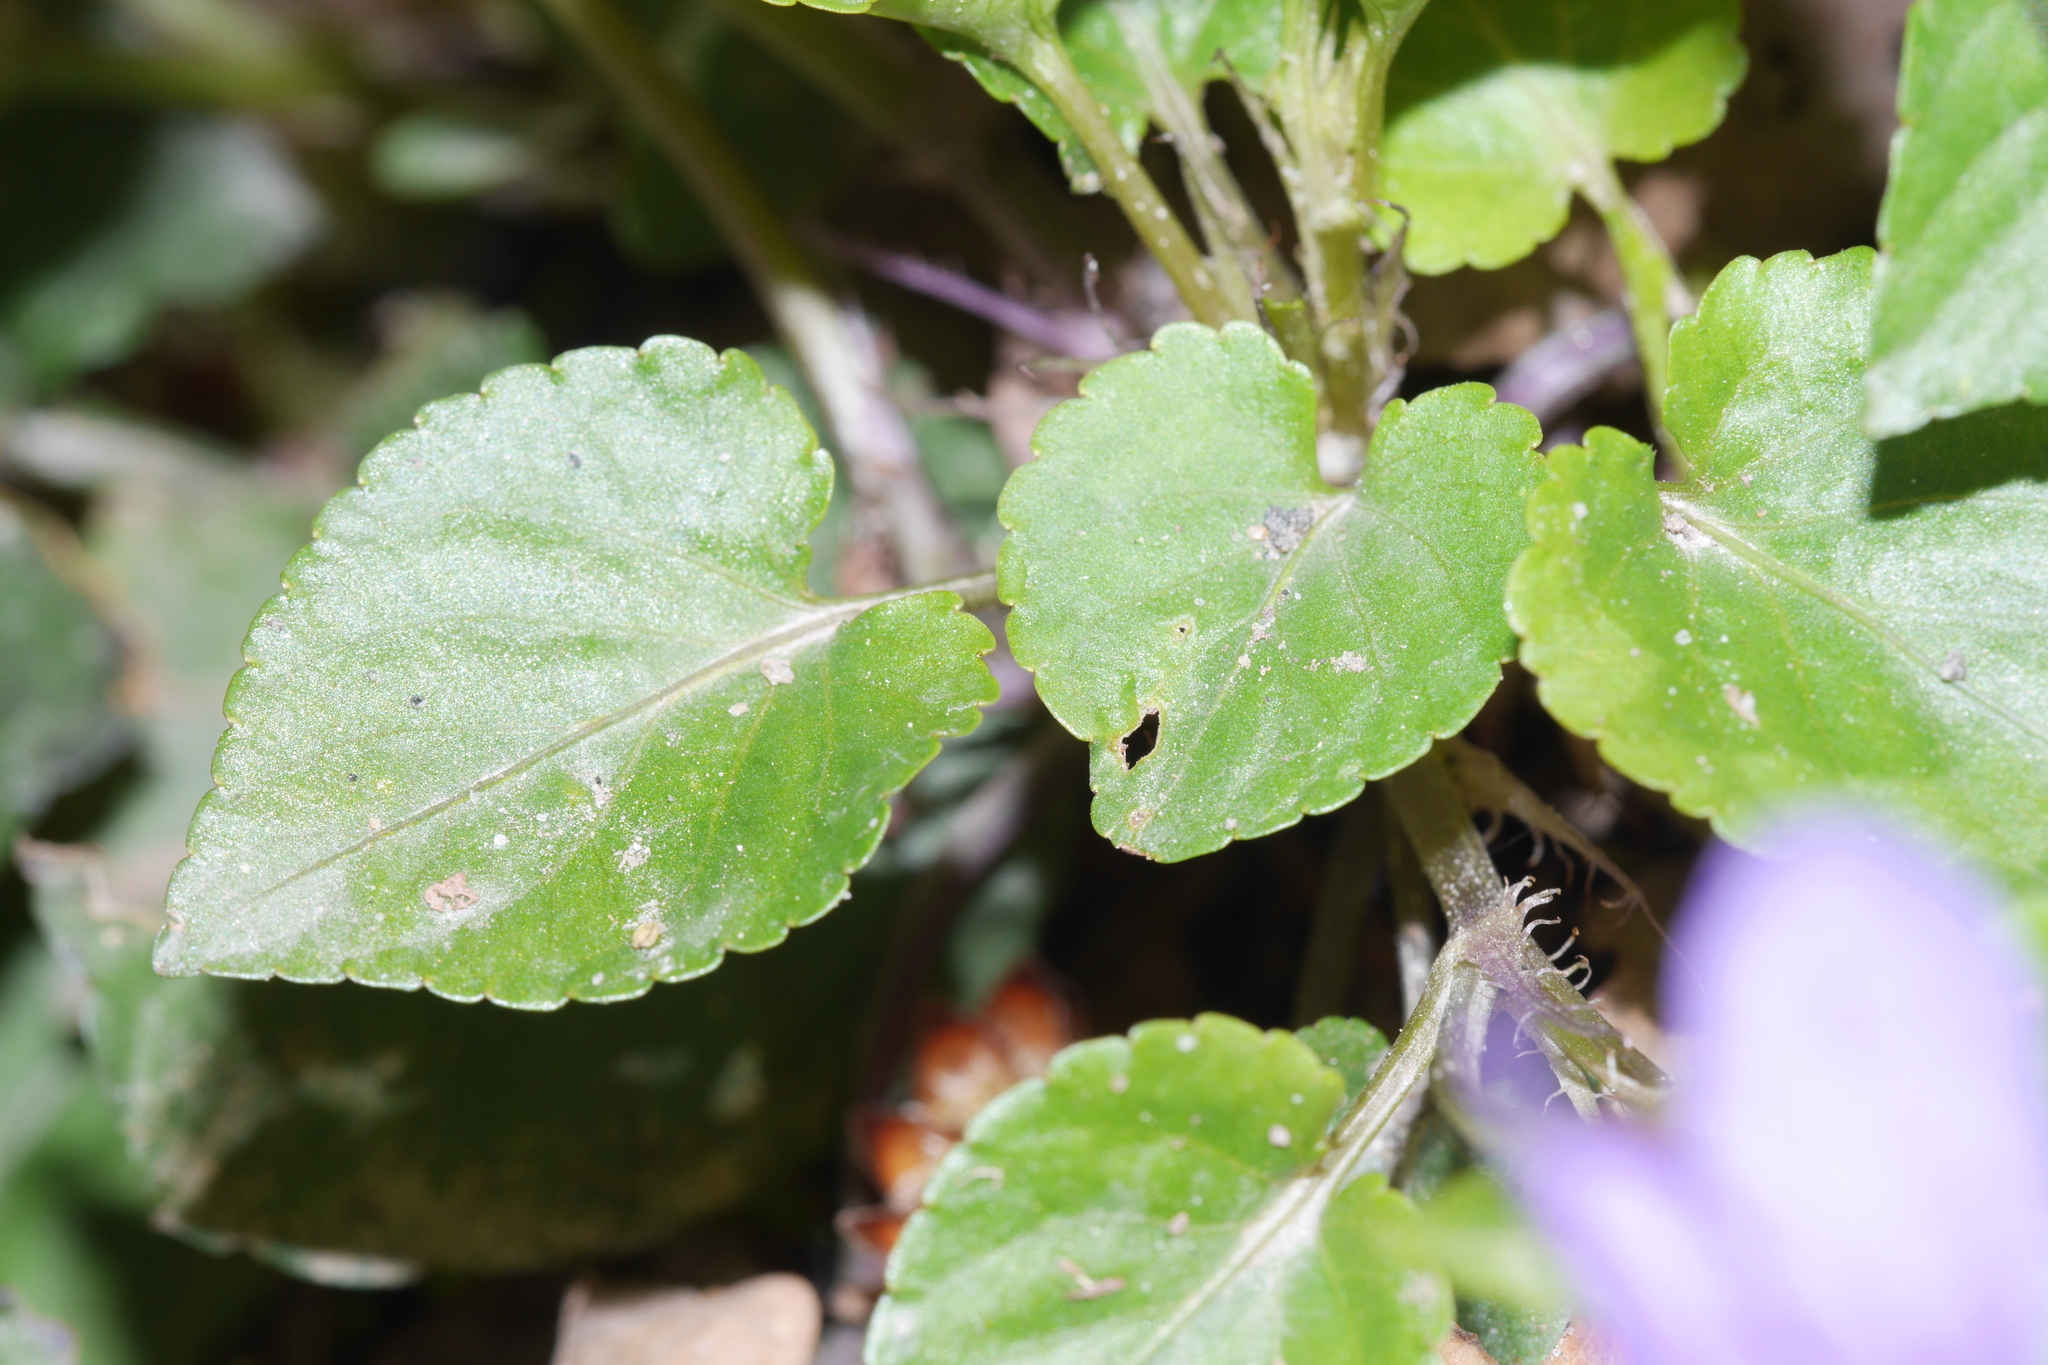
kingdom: Plantae
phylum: Tracheophyta
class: Magnoliopsida
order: Lamiales
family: Lamiaceae
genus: Glechoma
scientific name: Glechoma hederacea
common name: Ground ivy
